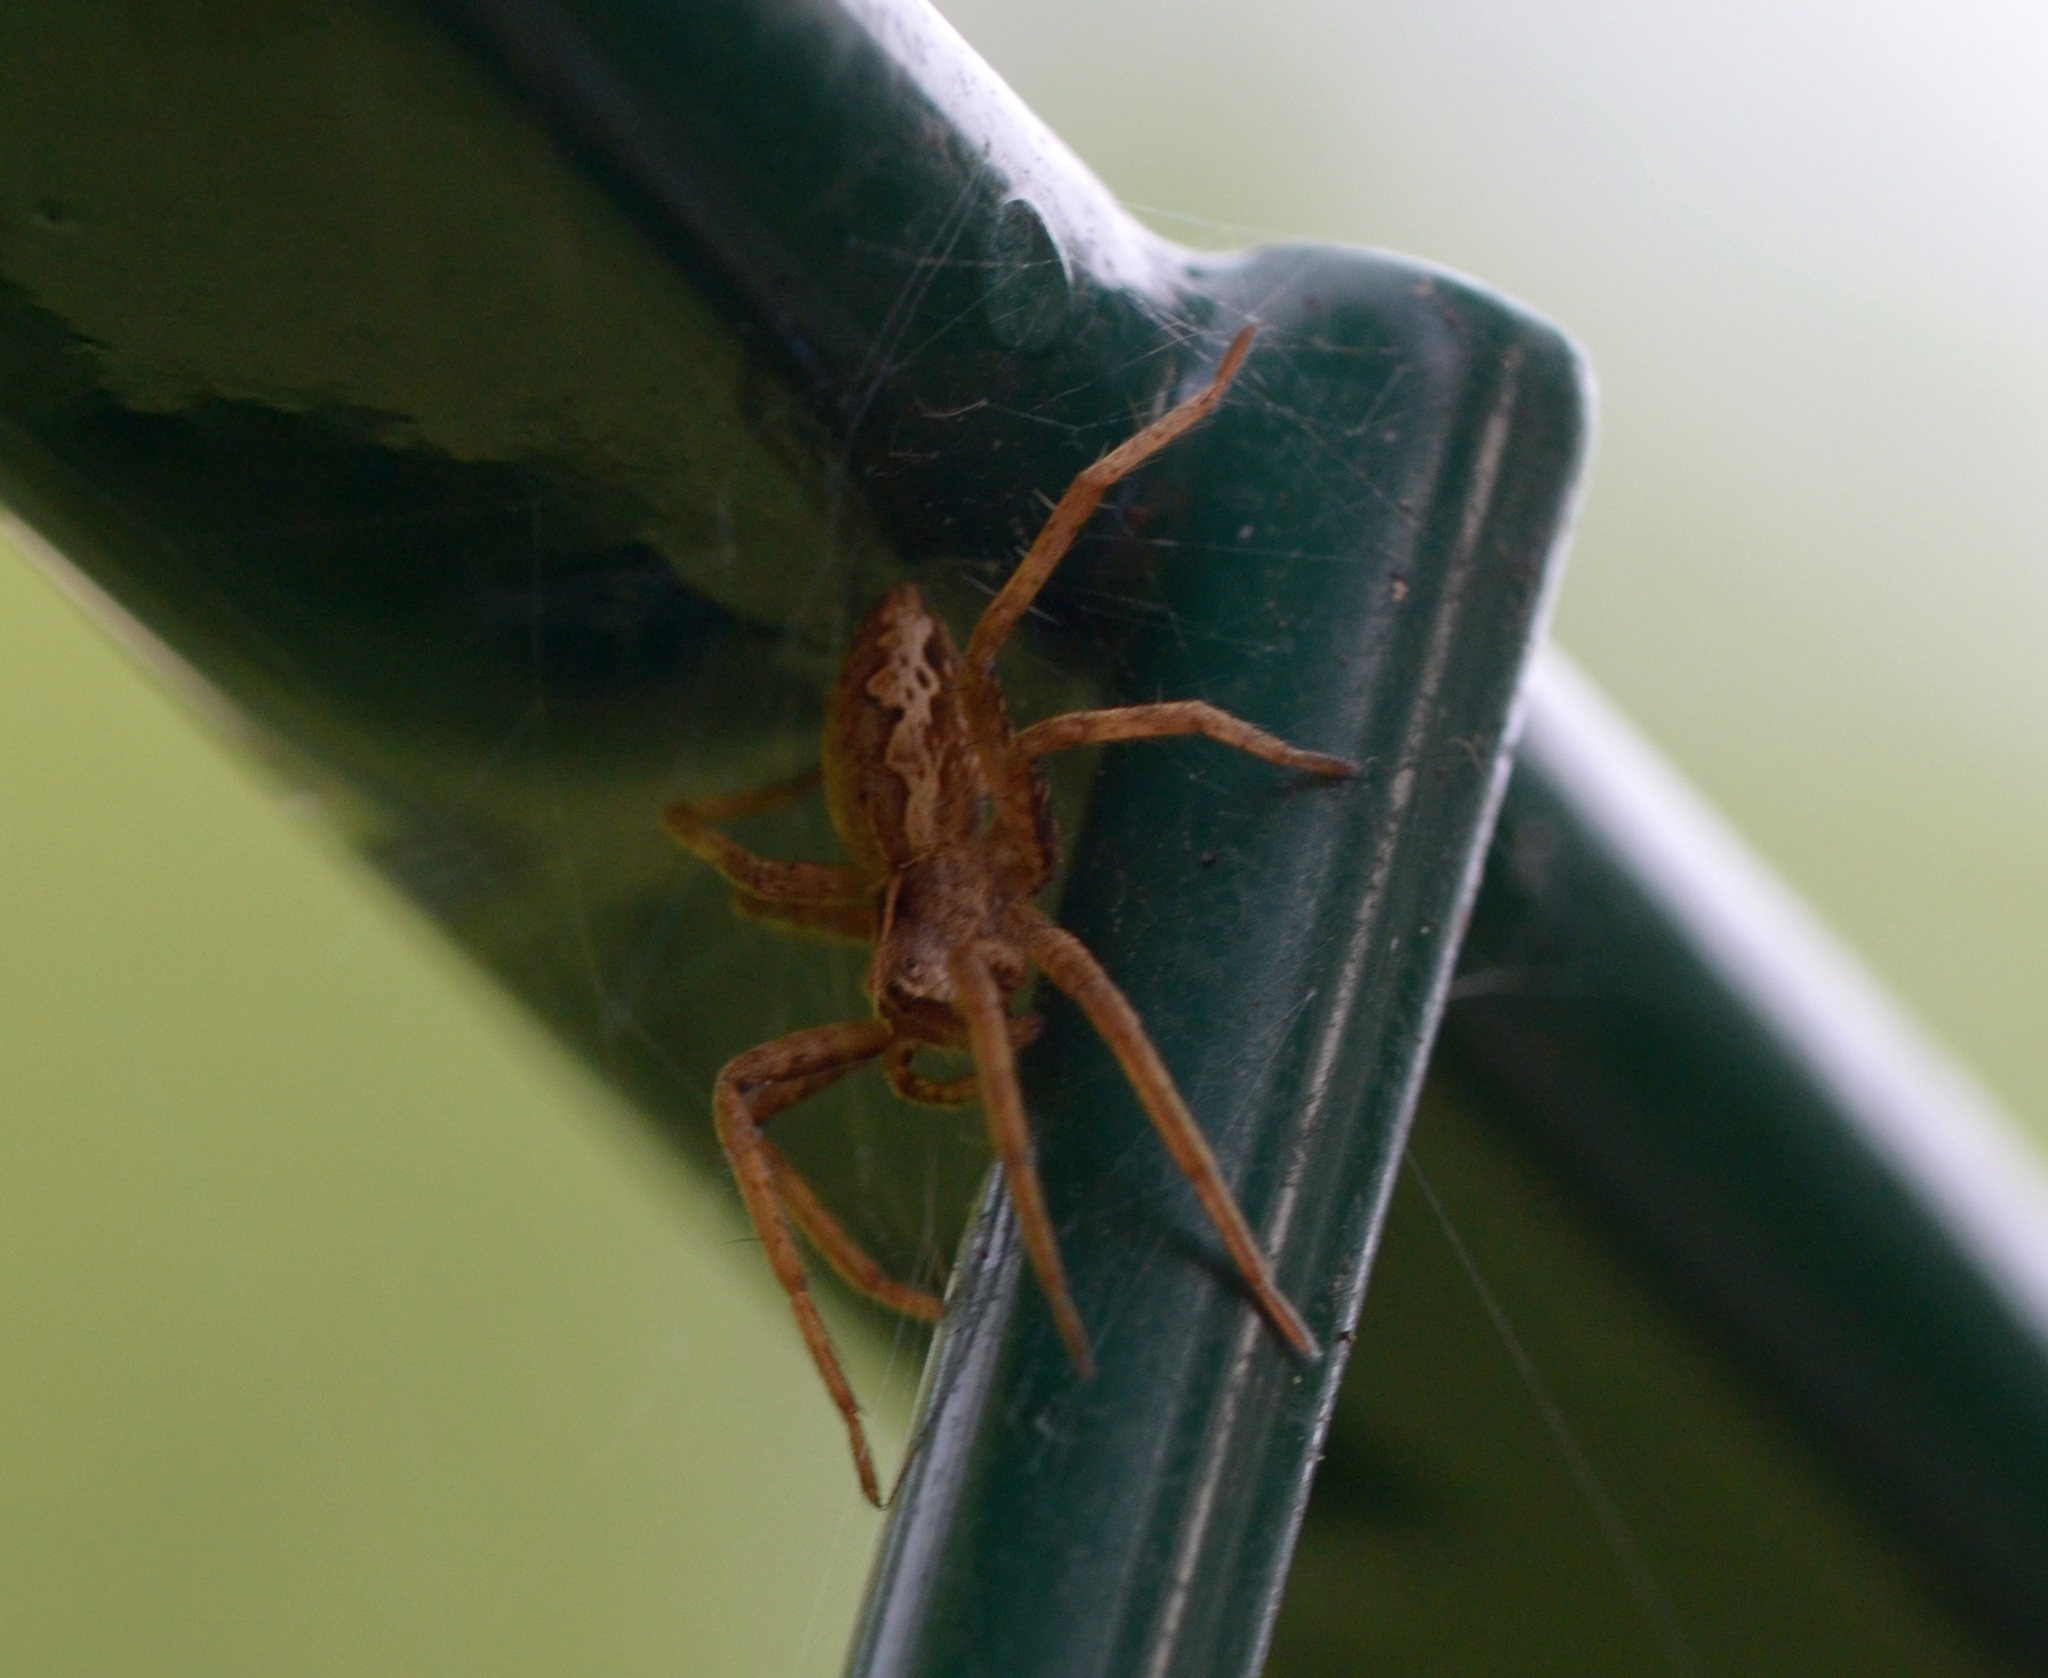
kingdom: Animalia
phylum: Arthropoda
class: Arachnida
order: Araneae
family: Pisauridae
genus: Pisaura
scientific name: Pisaura mirabilis
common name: Tent spider
